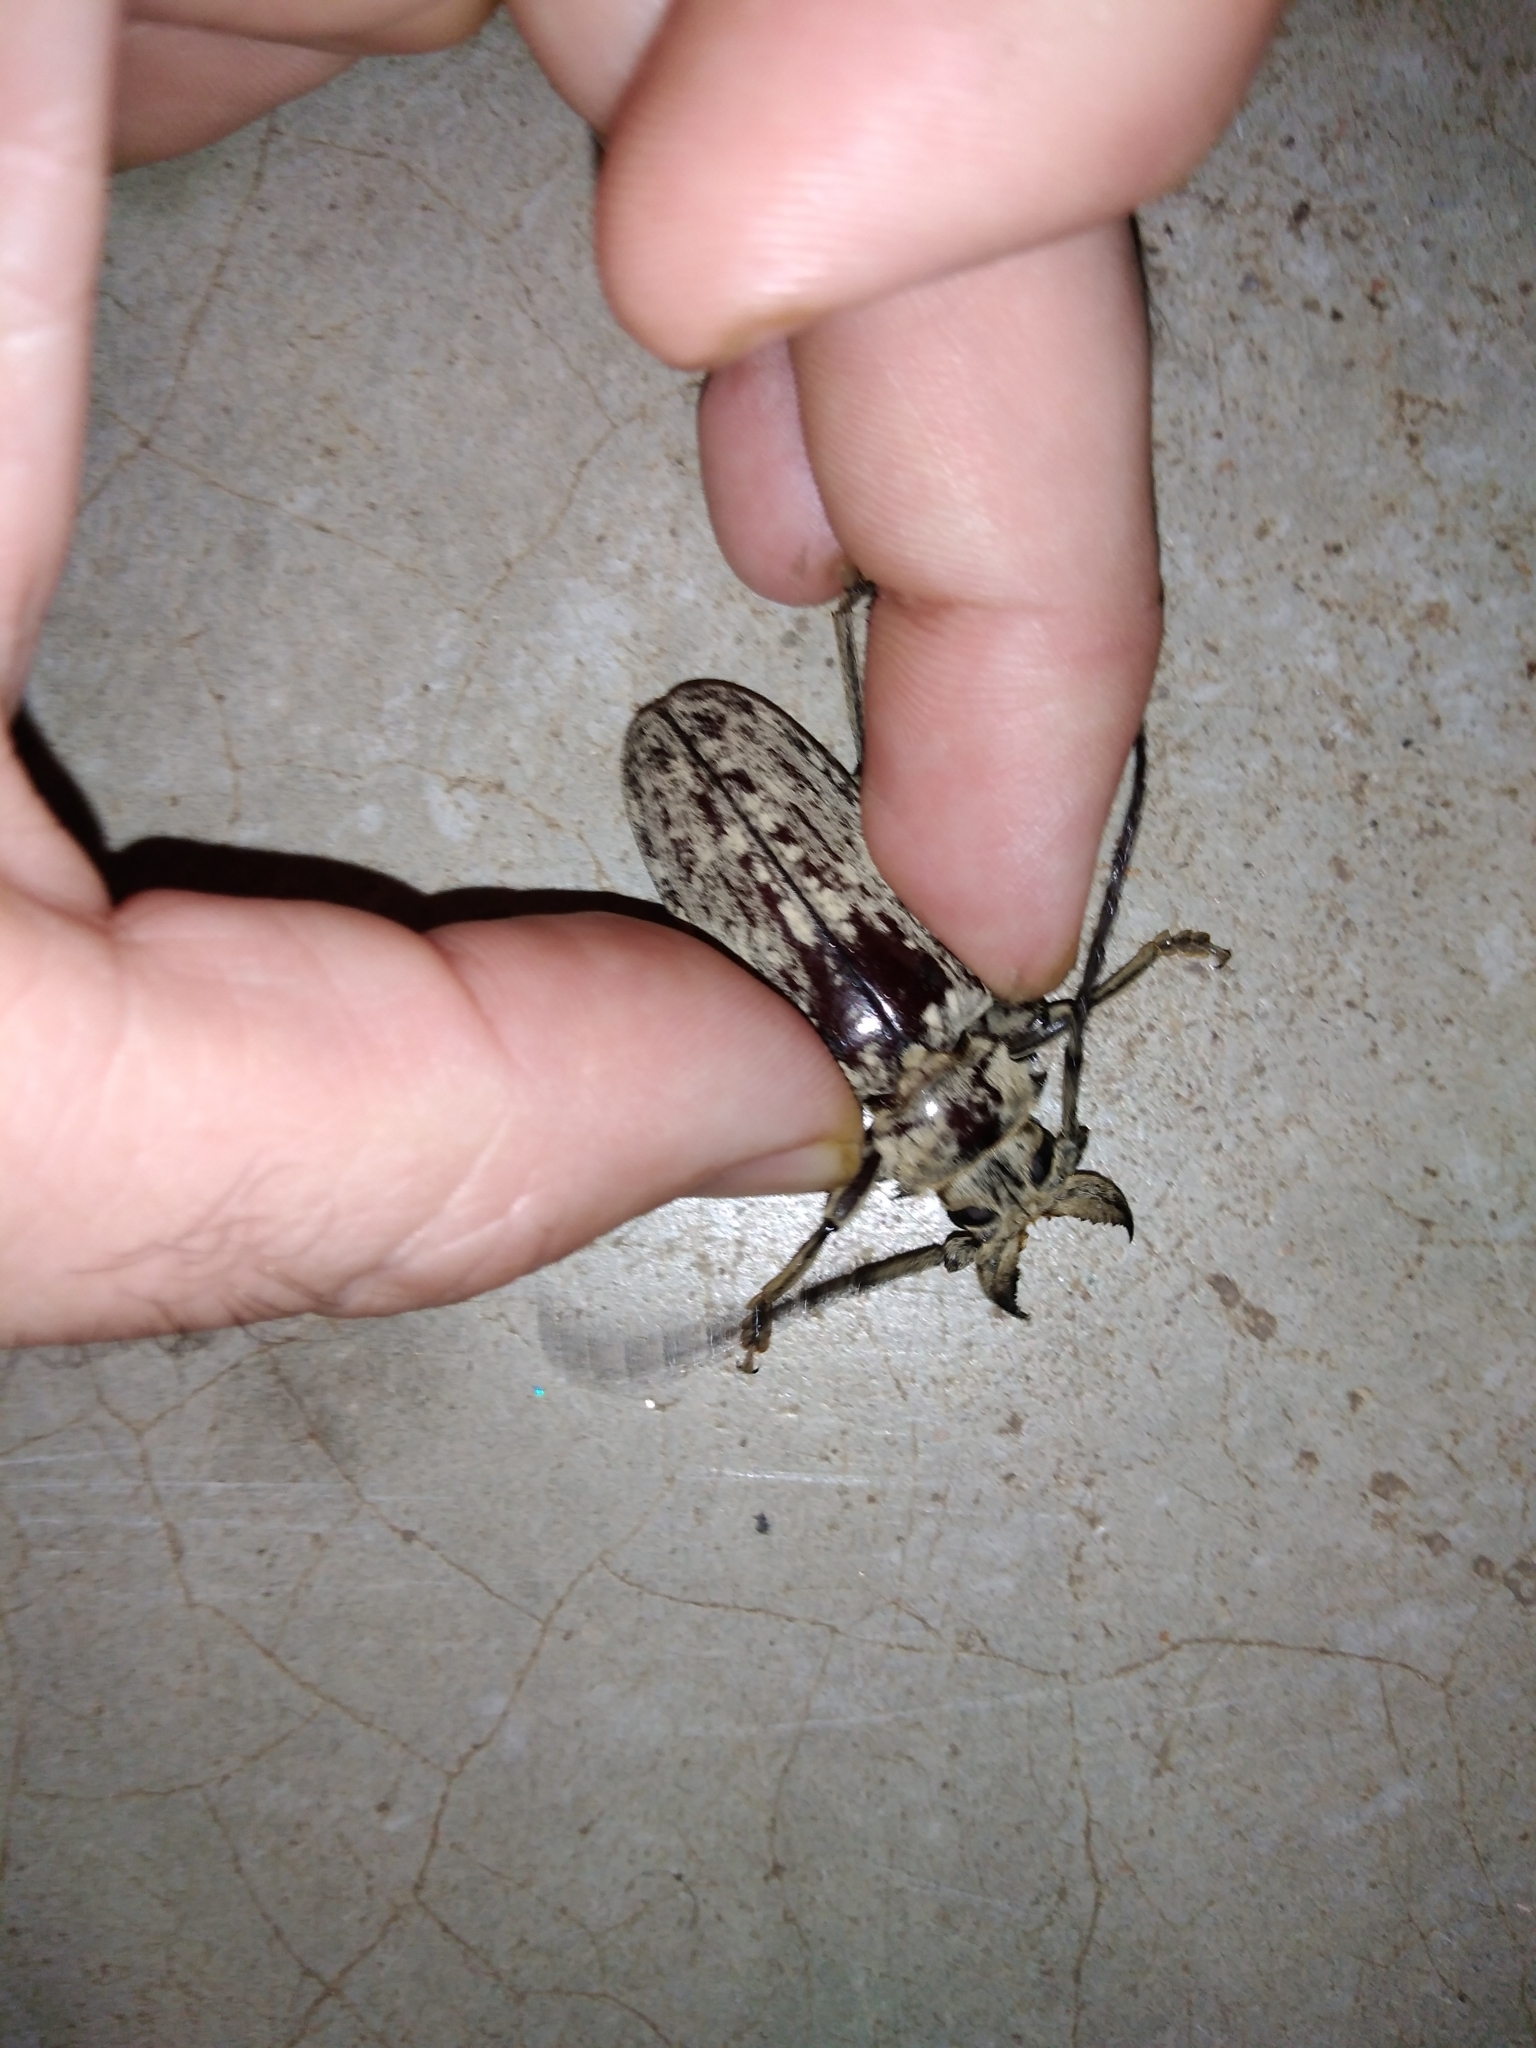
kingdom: Animalia
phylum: Arthropoda
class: Insecta
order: Coleoptera
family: Cerambycidae
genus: Tithoes
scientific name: Tithoes confinis
